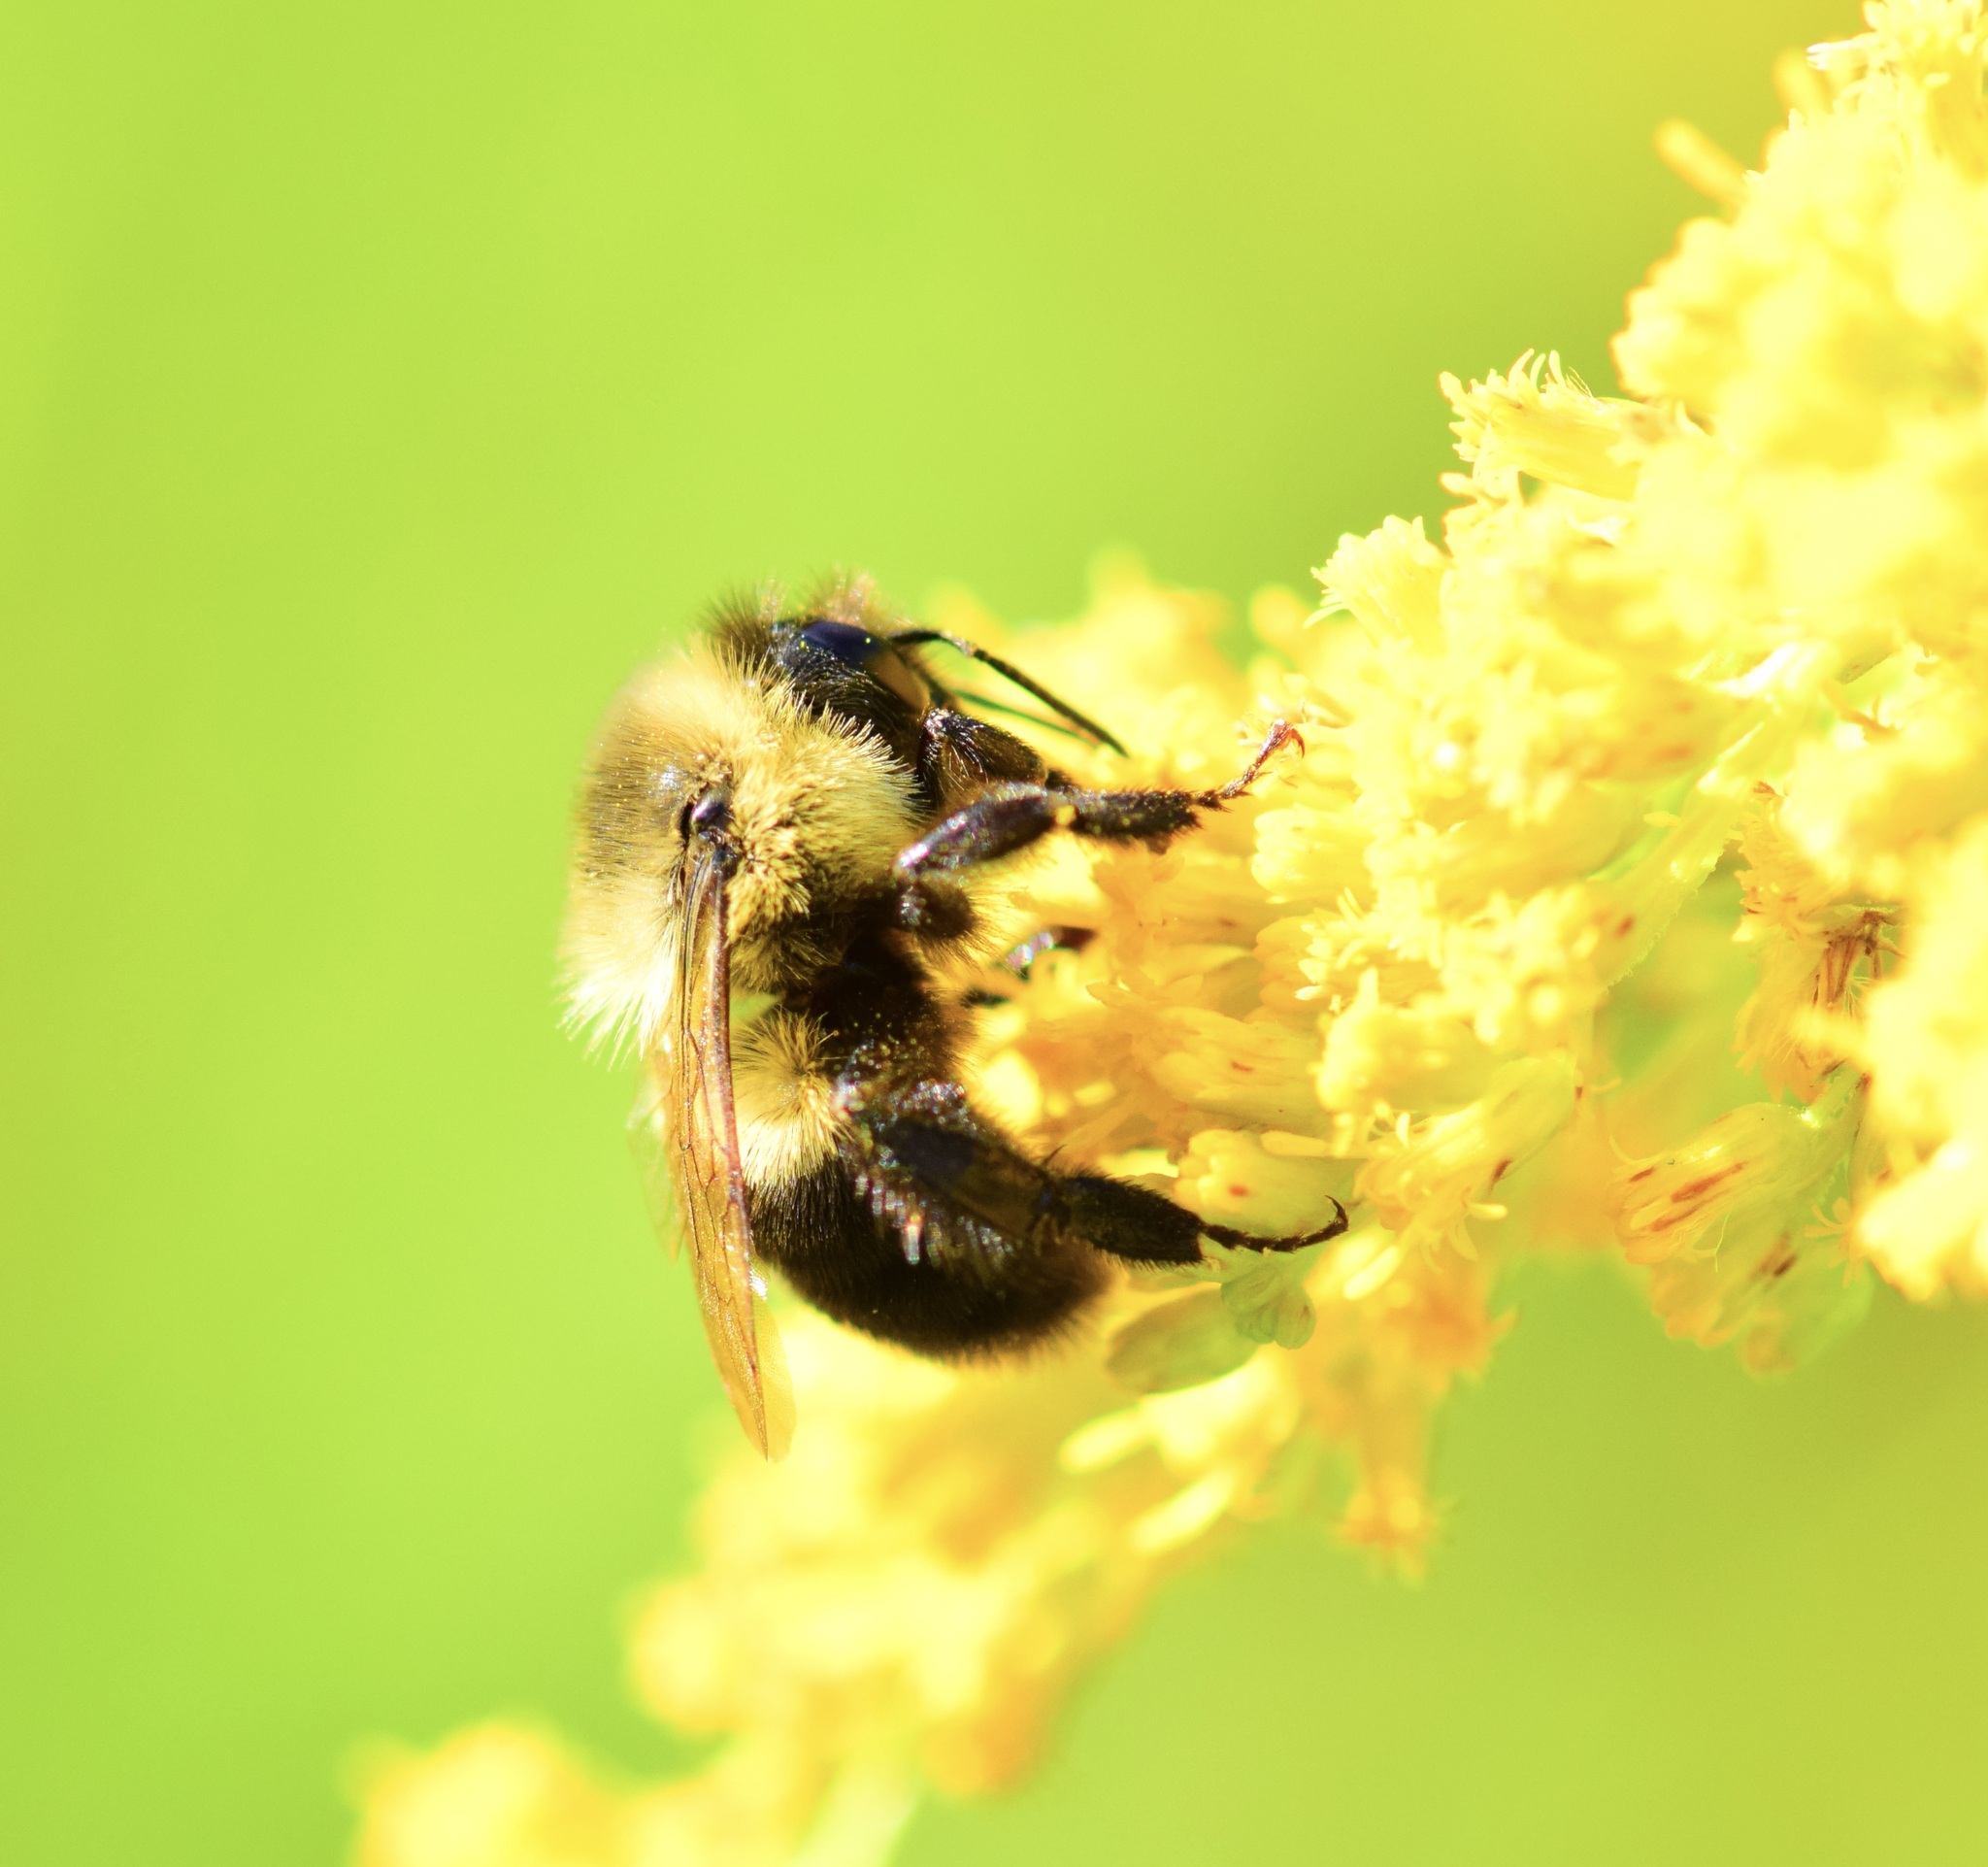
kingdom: Animalia
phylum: Arthropoda
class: Insecta
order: Hymenoptera
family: Apidae
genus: Bombus
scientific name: Bombus impatiens
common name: Common eastern bumble bee
